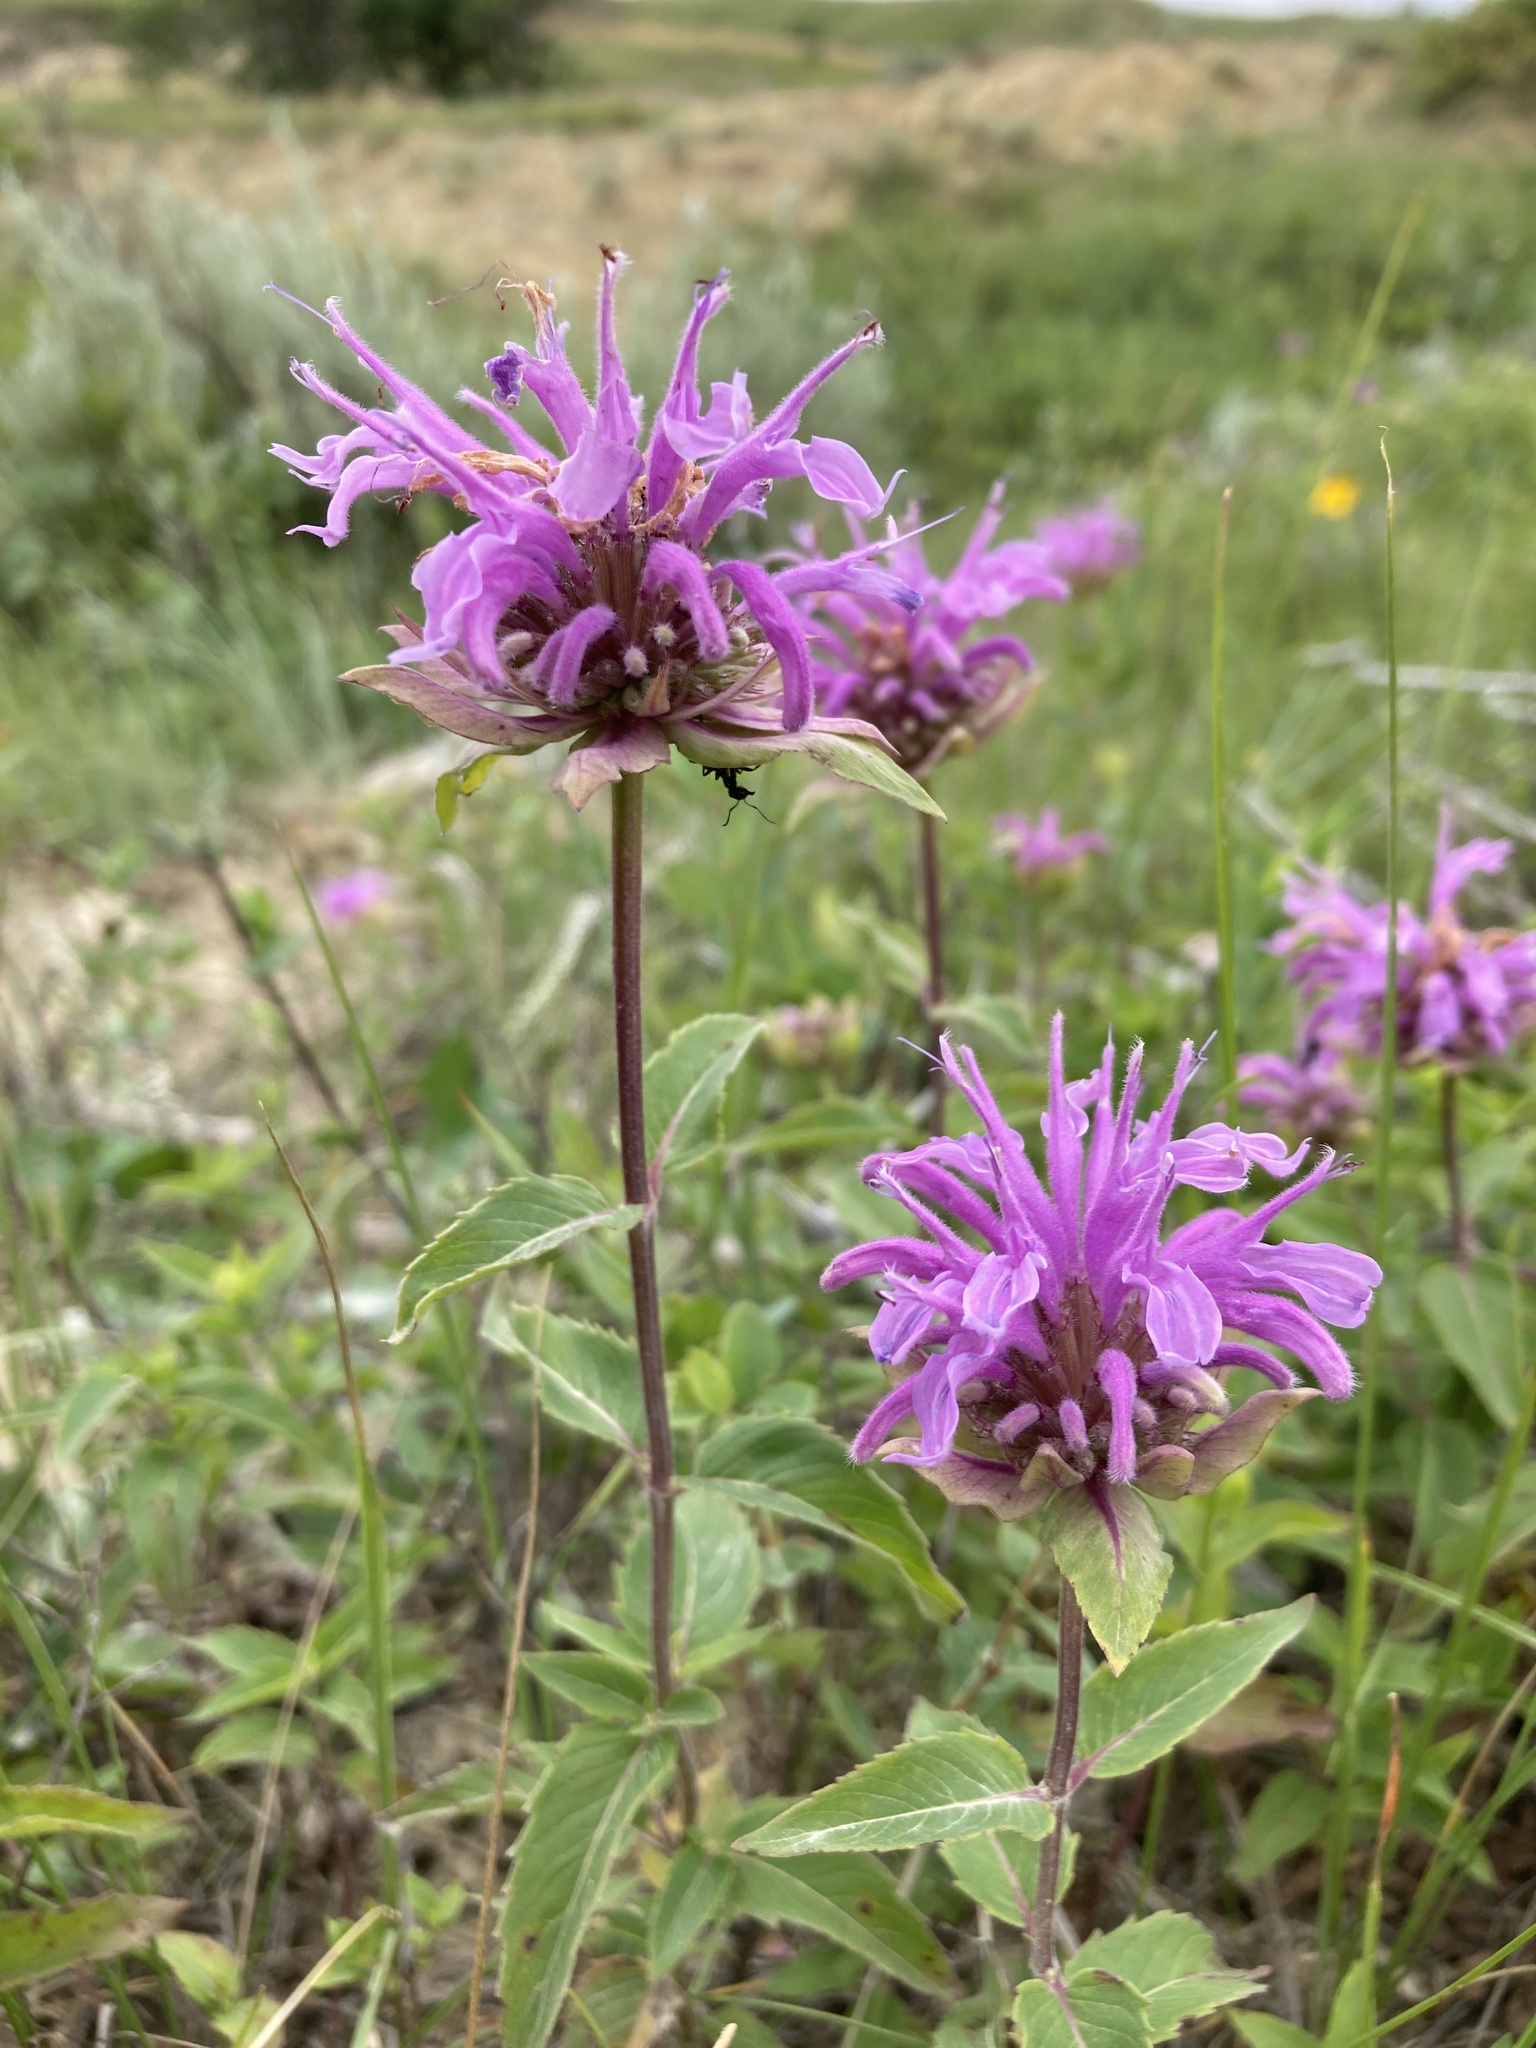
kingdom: Plantae
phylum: Tracheophyta
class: Magnoliopsida
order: Lamiales
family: Lamiaceae
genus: Monarda
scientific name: Monarda fistulosa
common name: Purple beebalm
